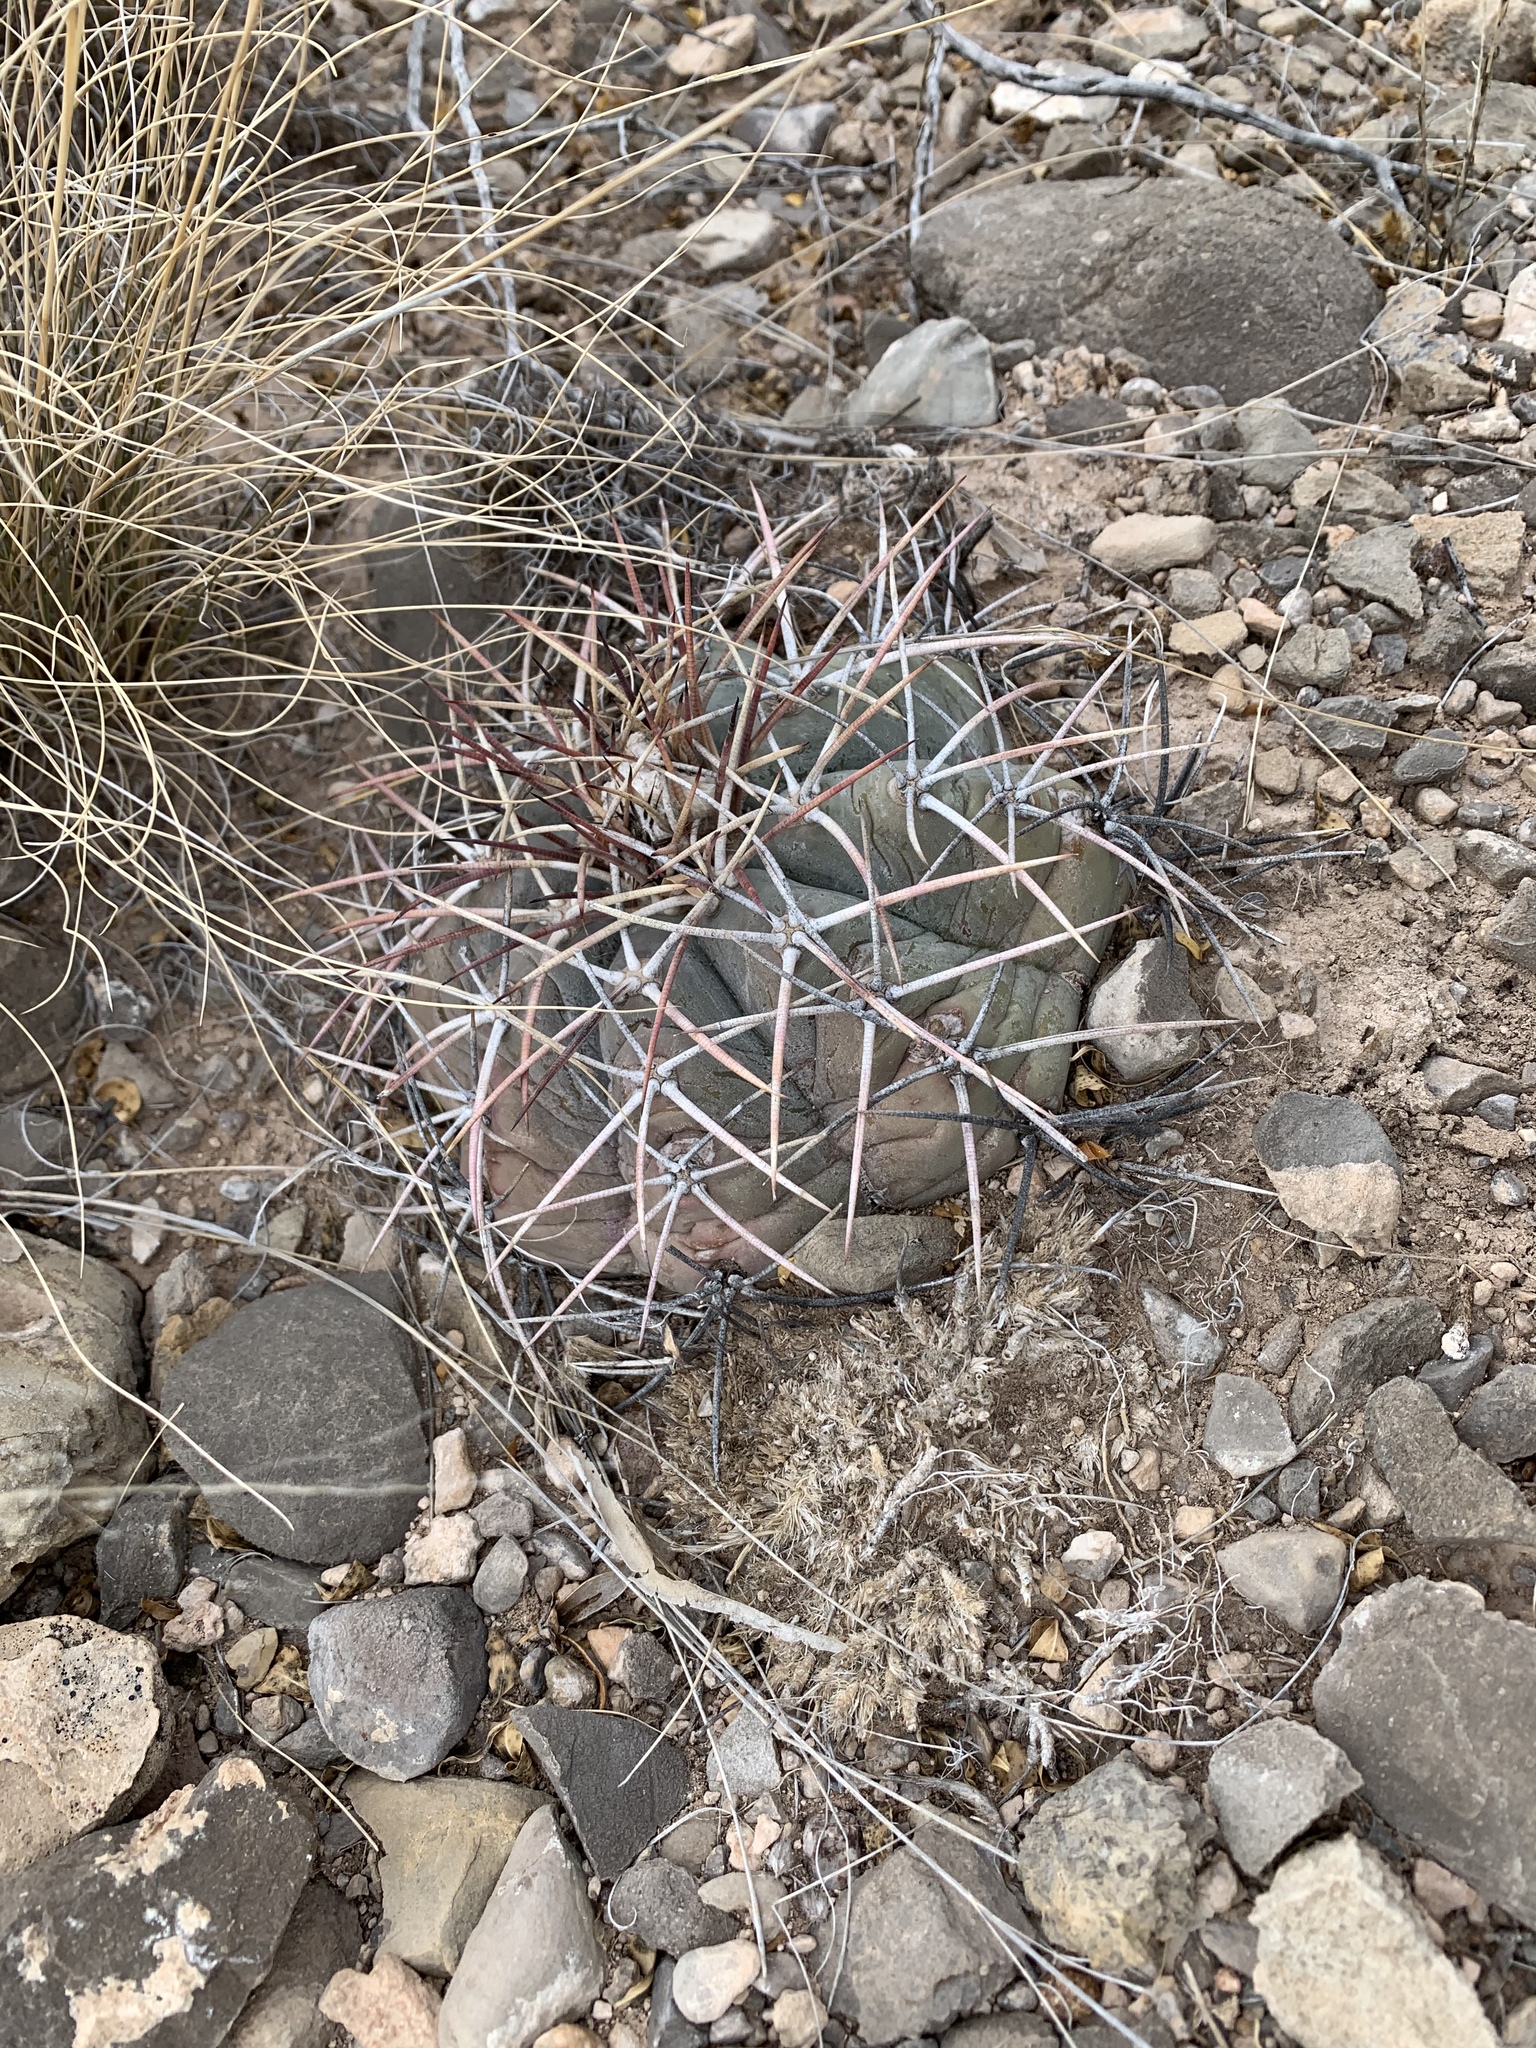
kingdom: Plantae
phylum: Tracheophyta
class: Magnoliopsida
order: Caryophyllales
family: Cactaceae
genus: Echinocactus
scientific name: Echinocactus horizonthalonius
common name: Devilshead
